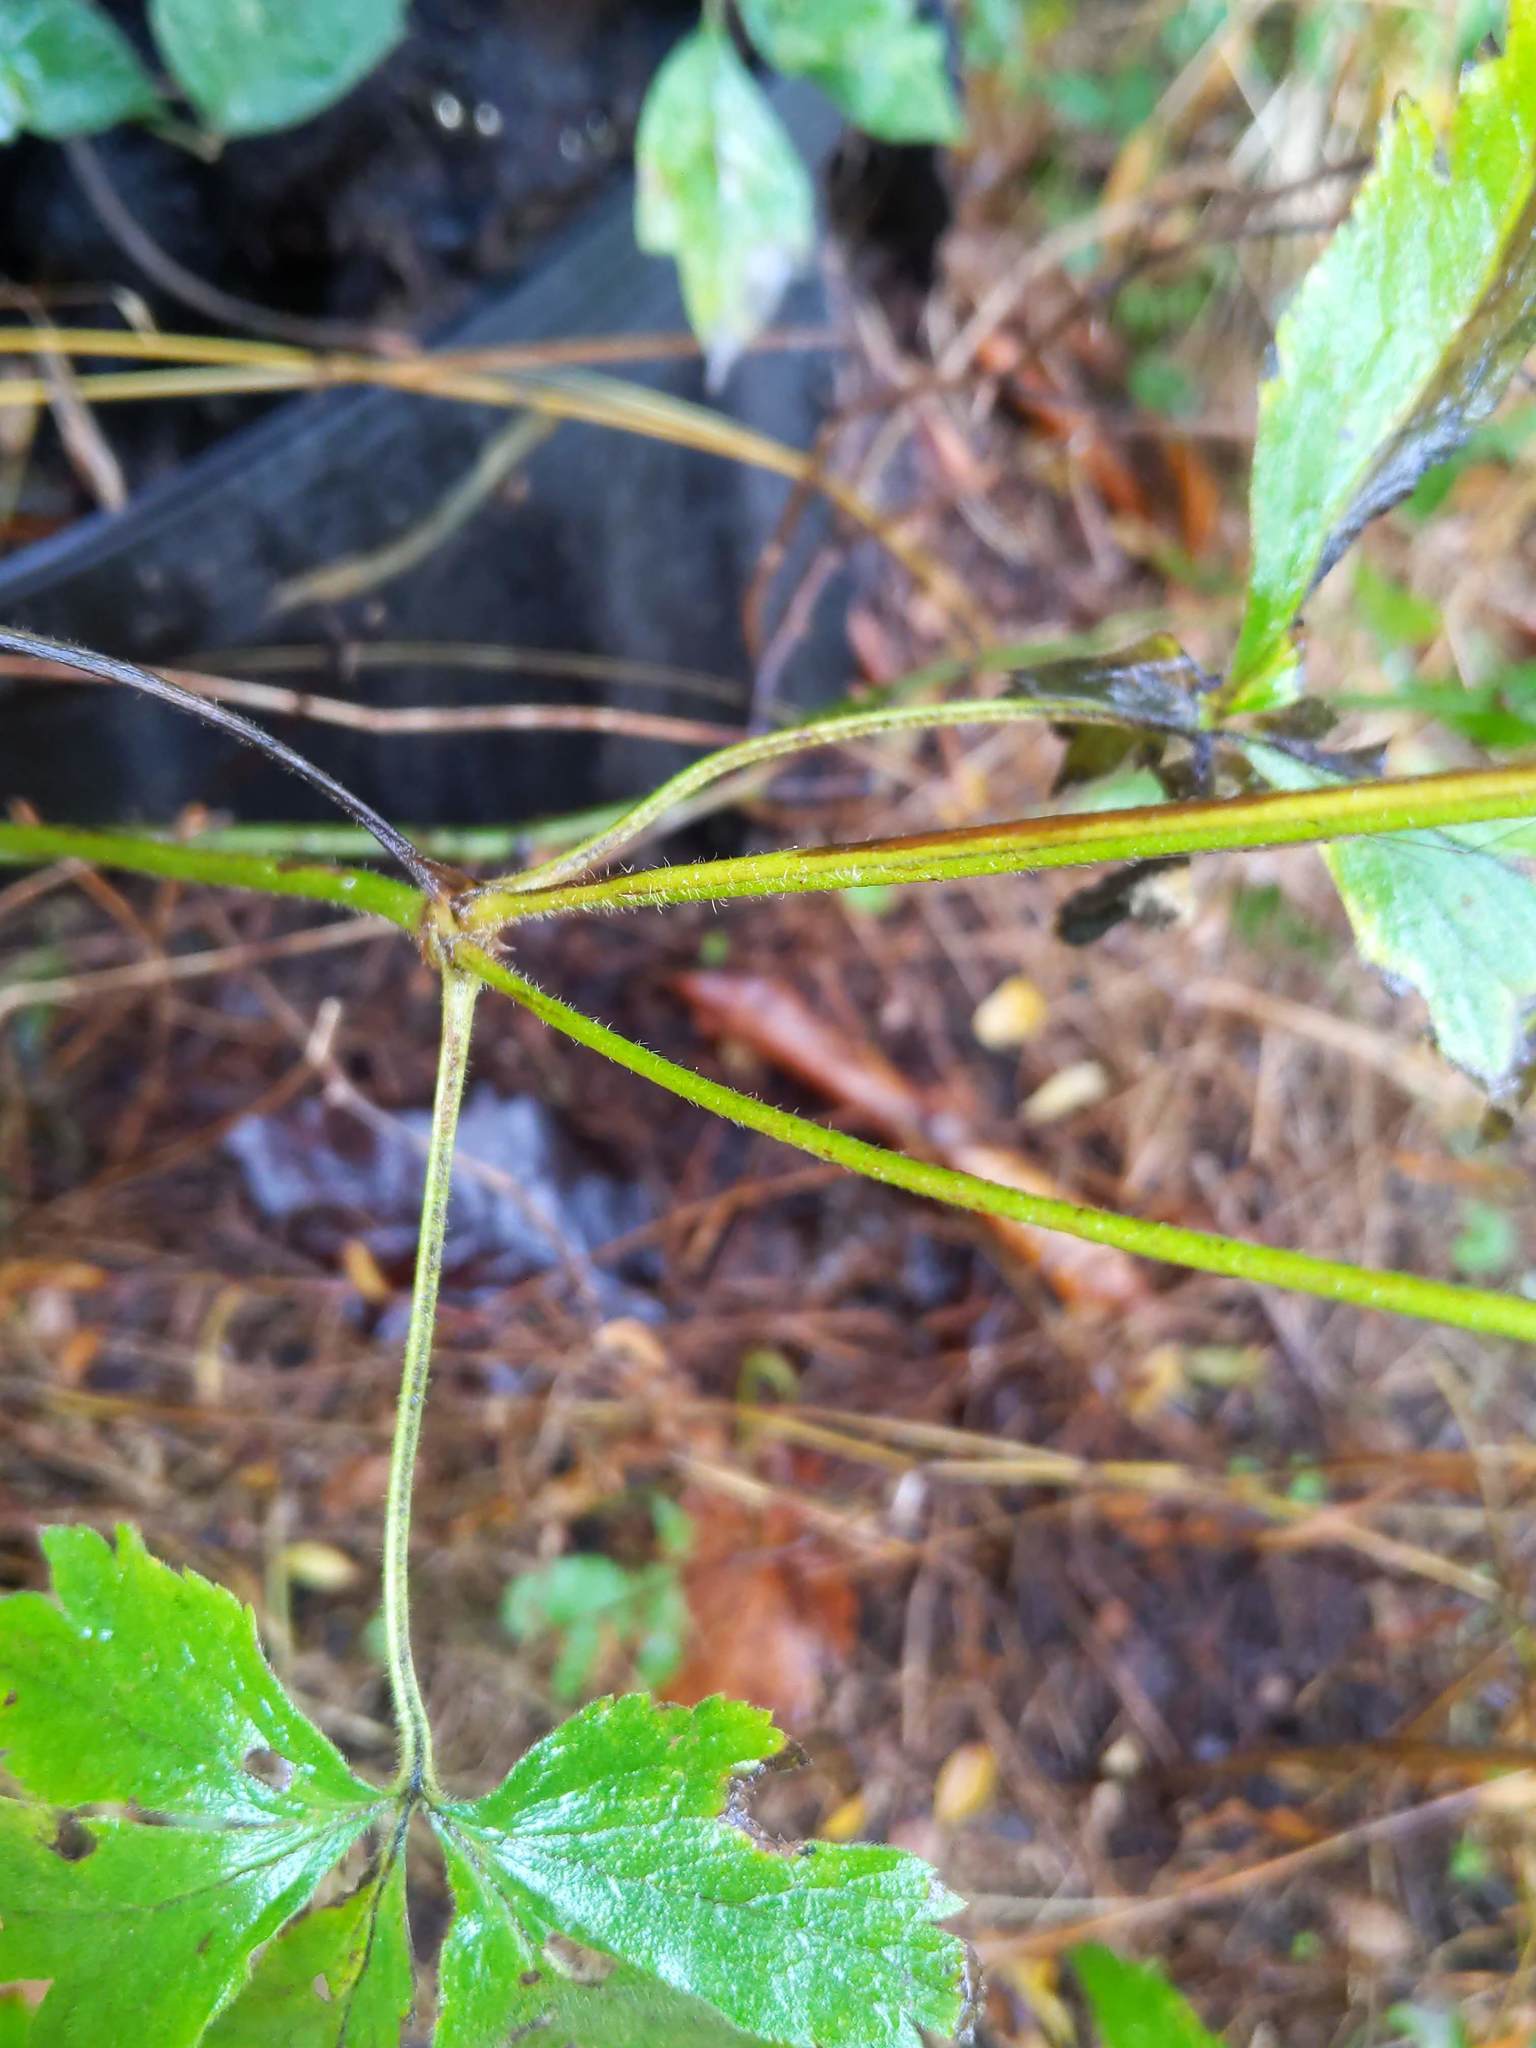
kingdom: Plantae
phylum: Tracheophyta
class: Magnoliopsida
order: Ranunculales
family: Ranunculaceae
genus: Anemone
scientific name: Anemone virginiana
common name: Tall anemone
